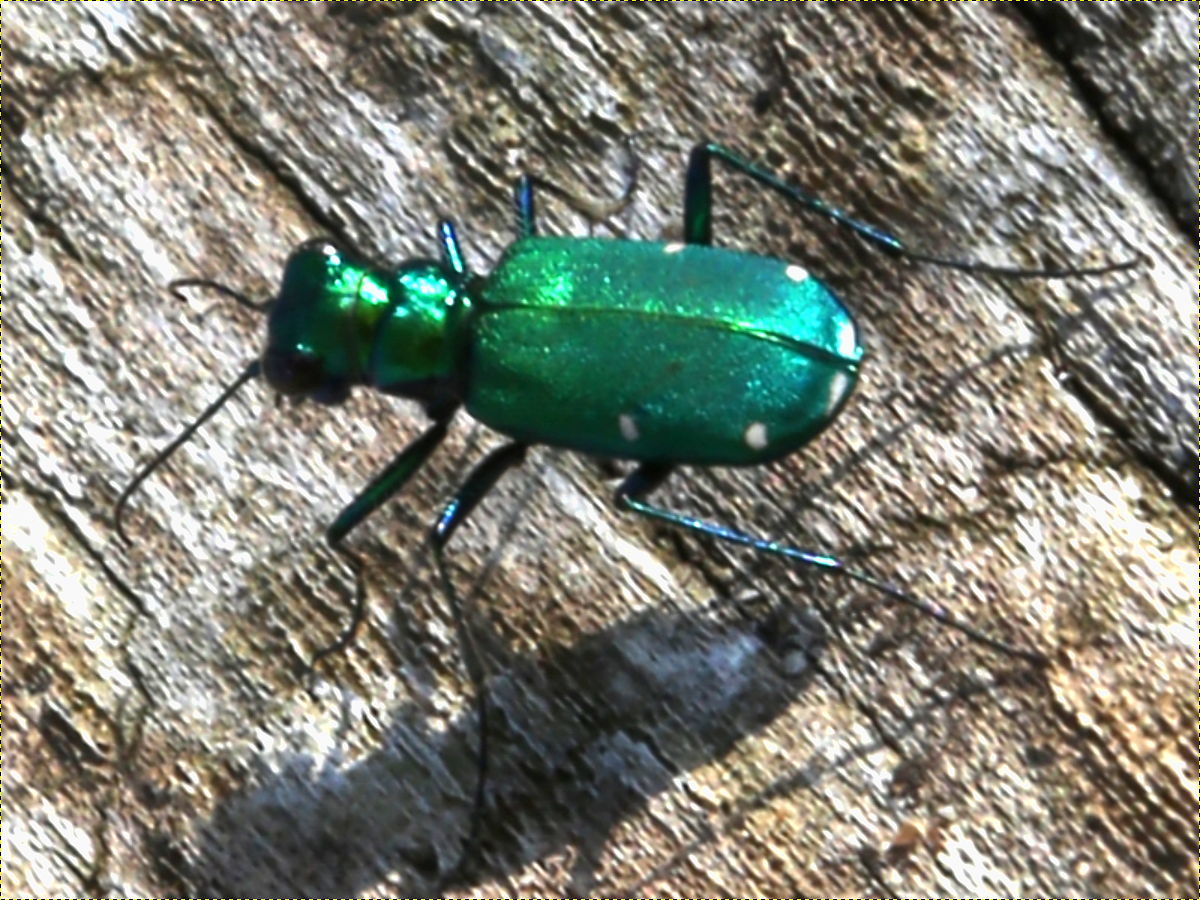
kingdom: Animalia
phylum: Arthropoda
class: Insecta
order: Coleoptera
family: Carabidae
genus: Cicindela
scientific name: Cicindela sexguttata
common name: Six-spotted tiger beetle
